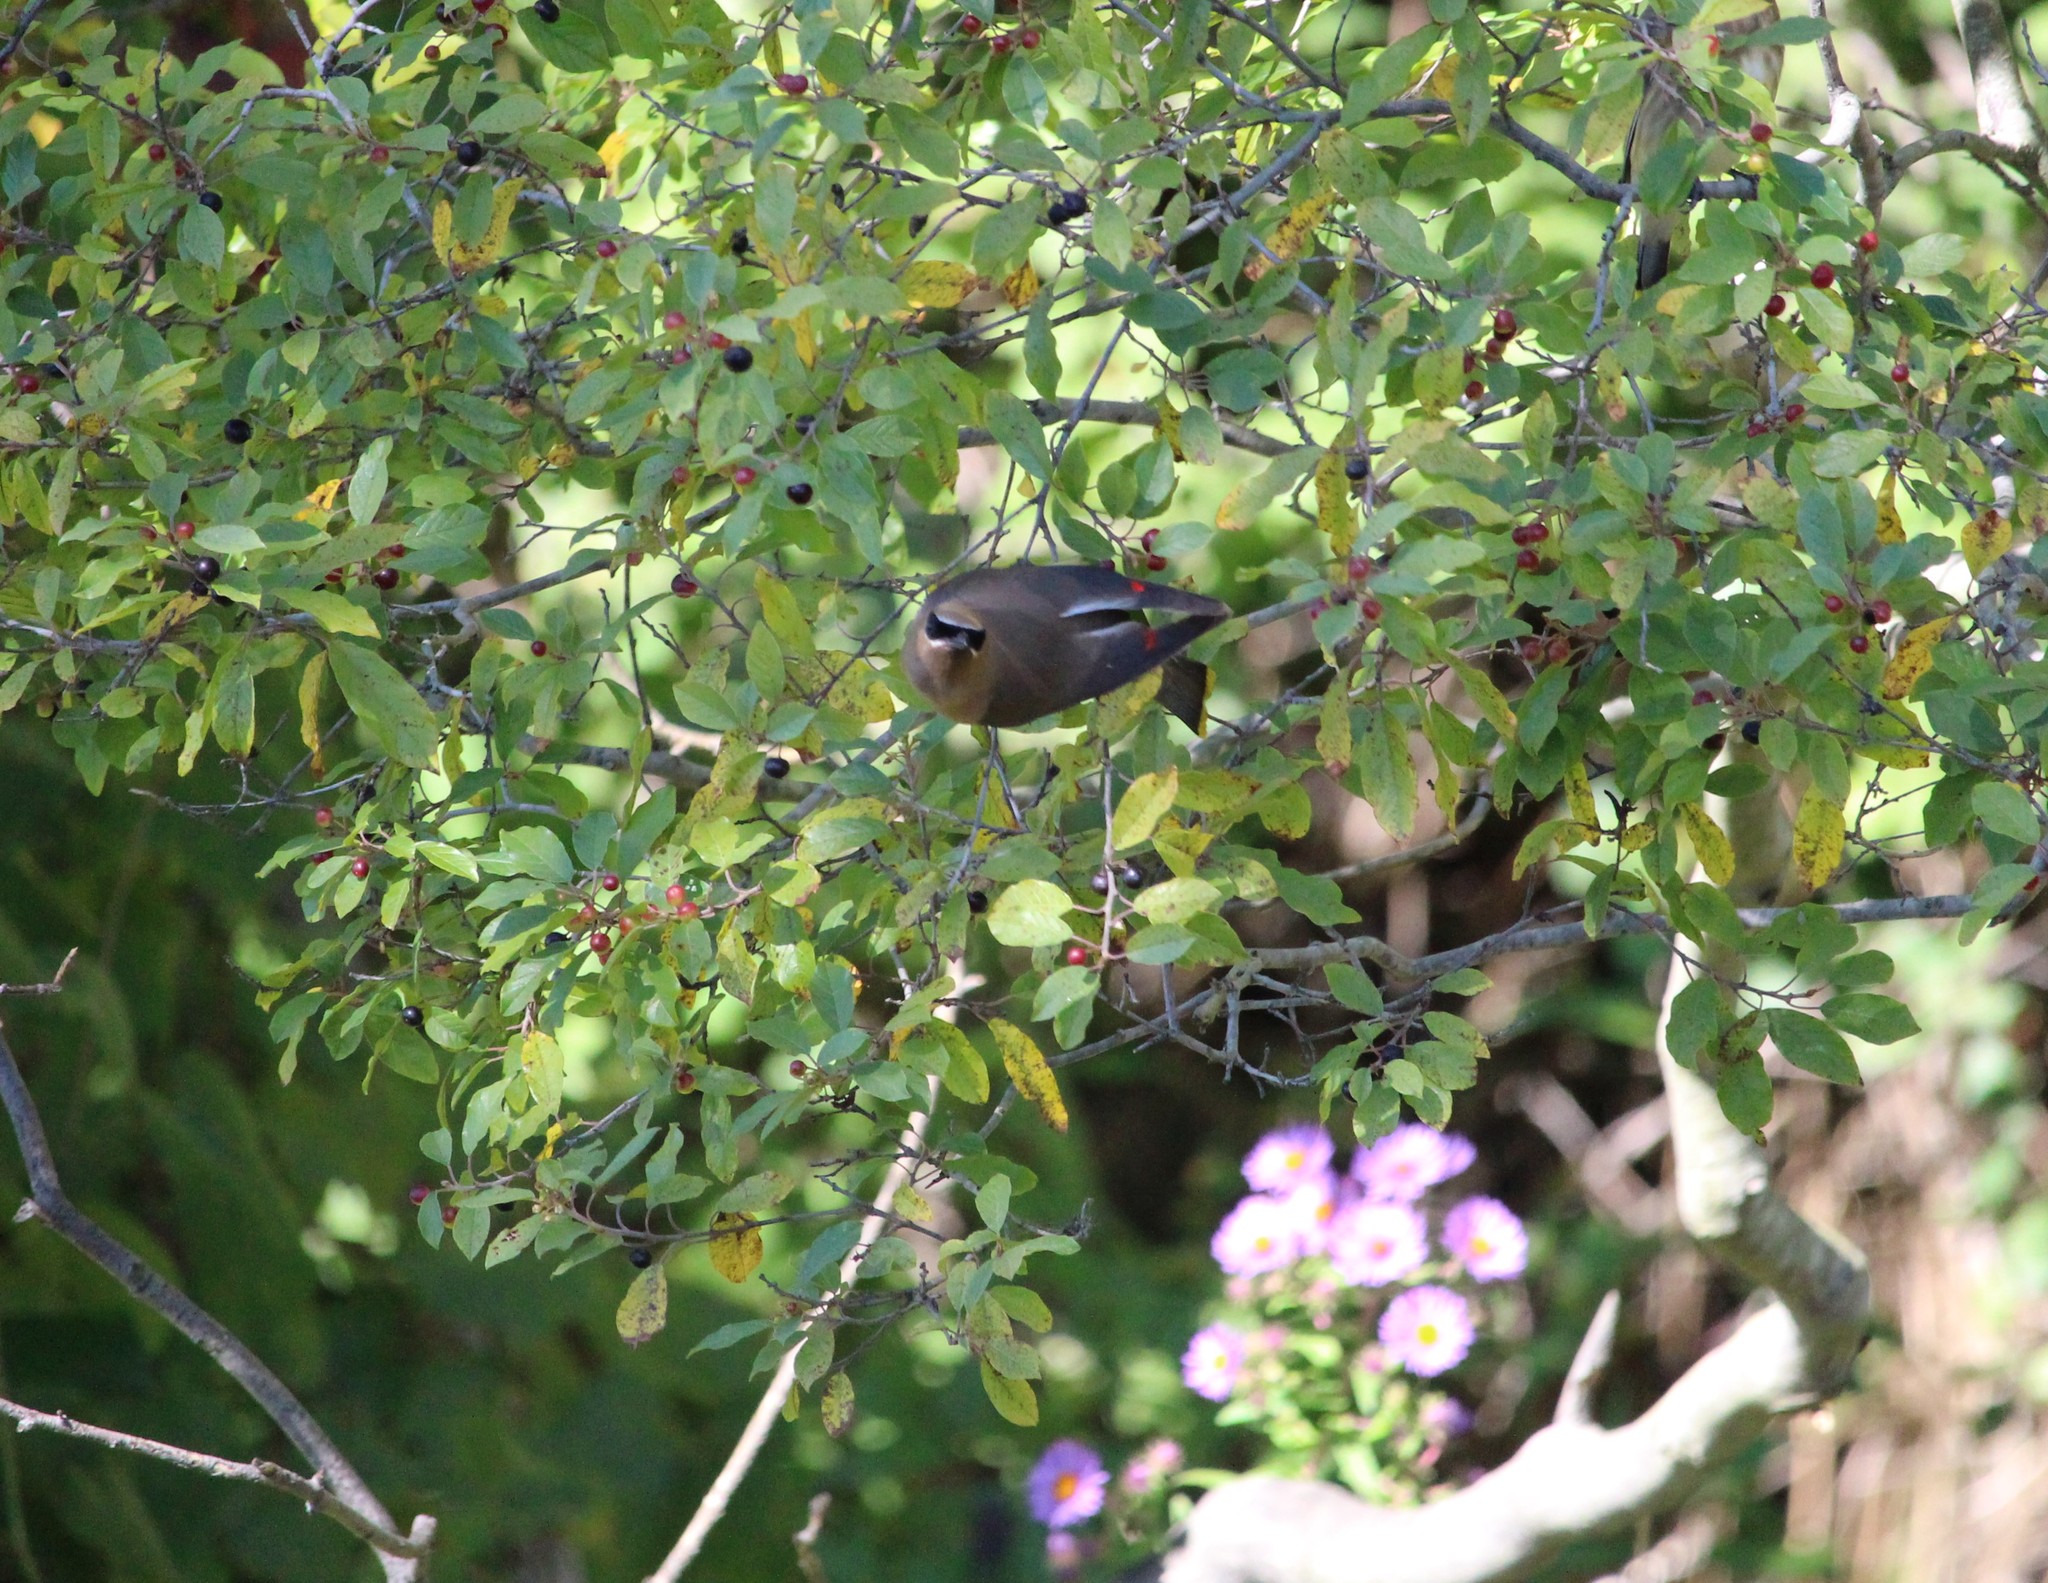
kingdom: Animalia
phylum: Chordata
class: Aves
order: Passeriformes
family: Bombycillidae
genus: Bombycilla
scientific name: Bombycilla cedrorum
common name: Cedar waxwing
